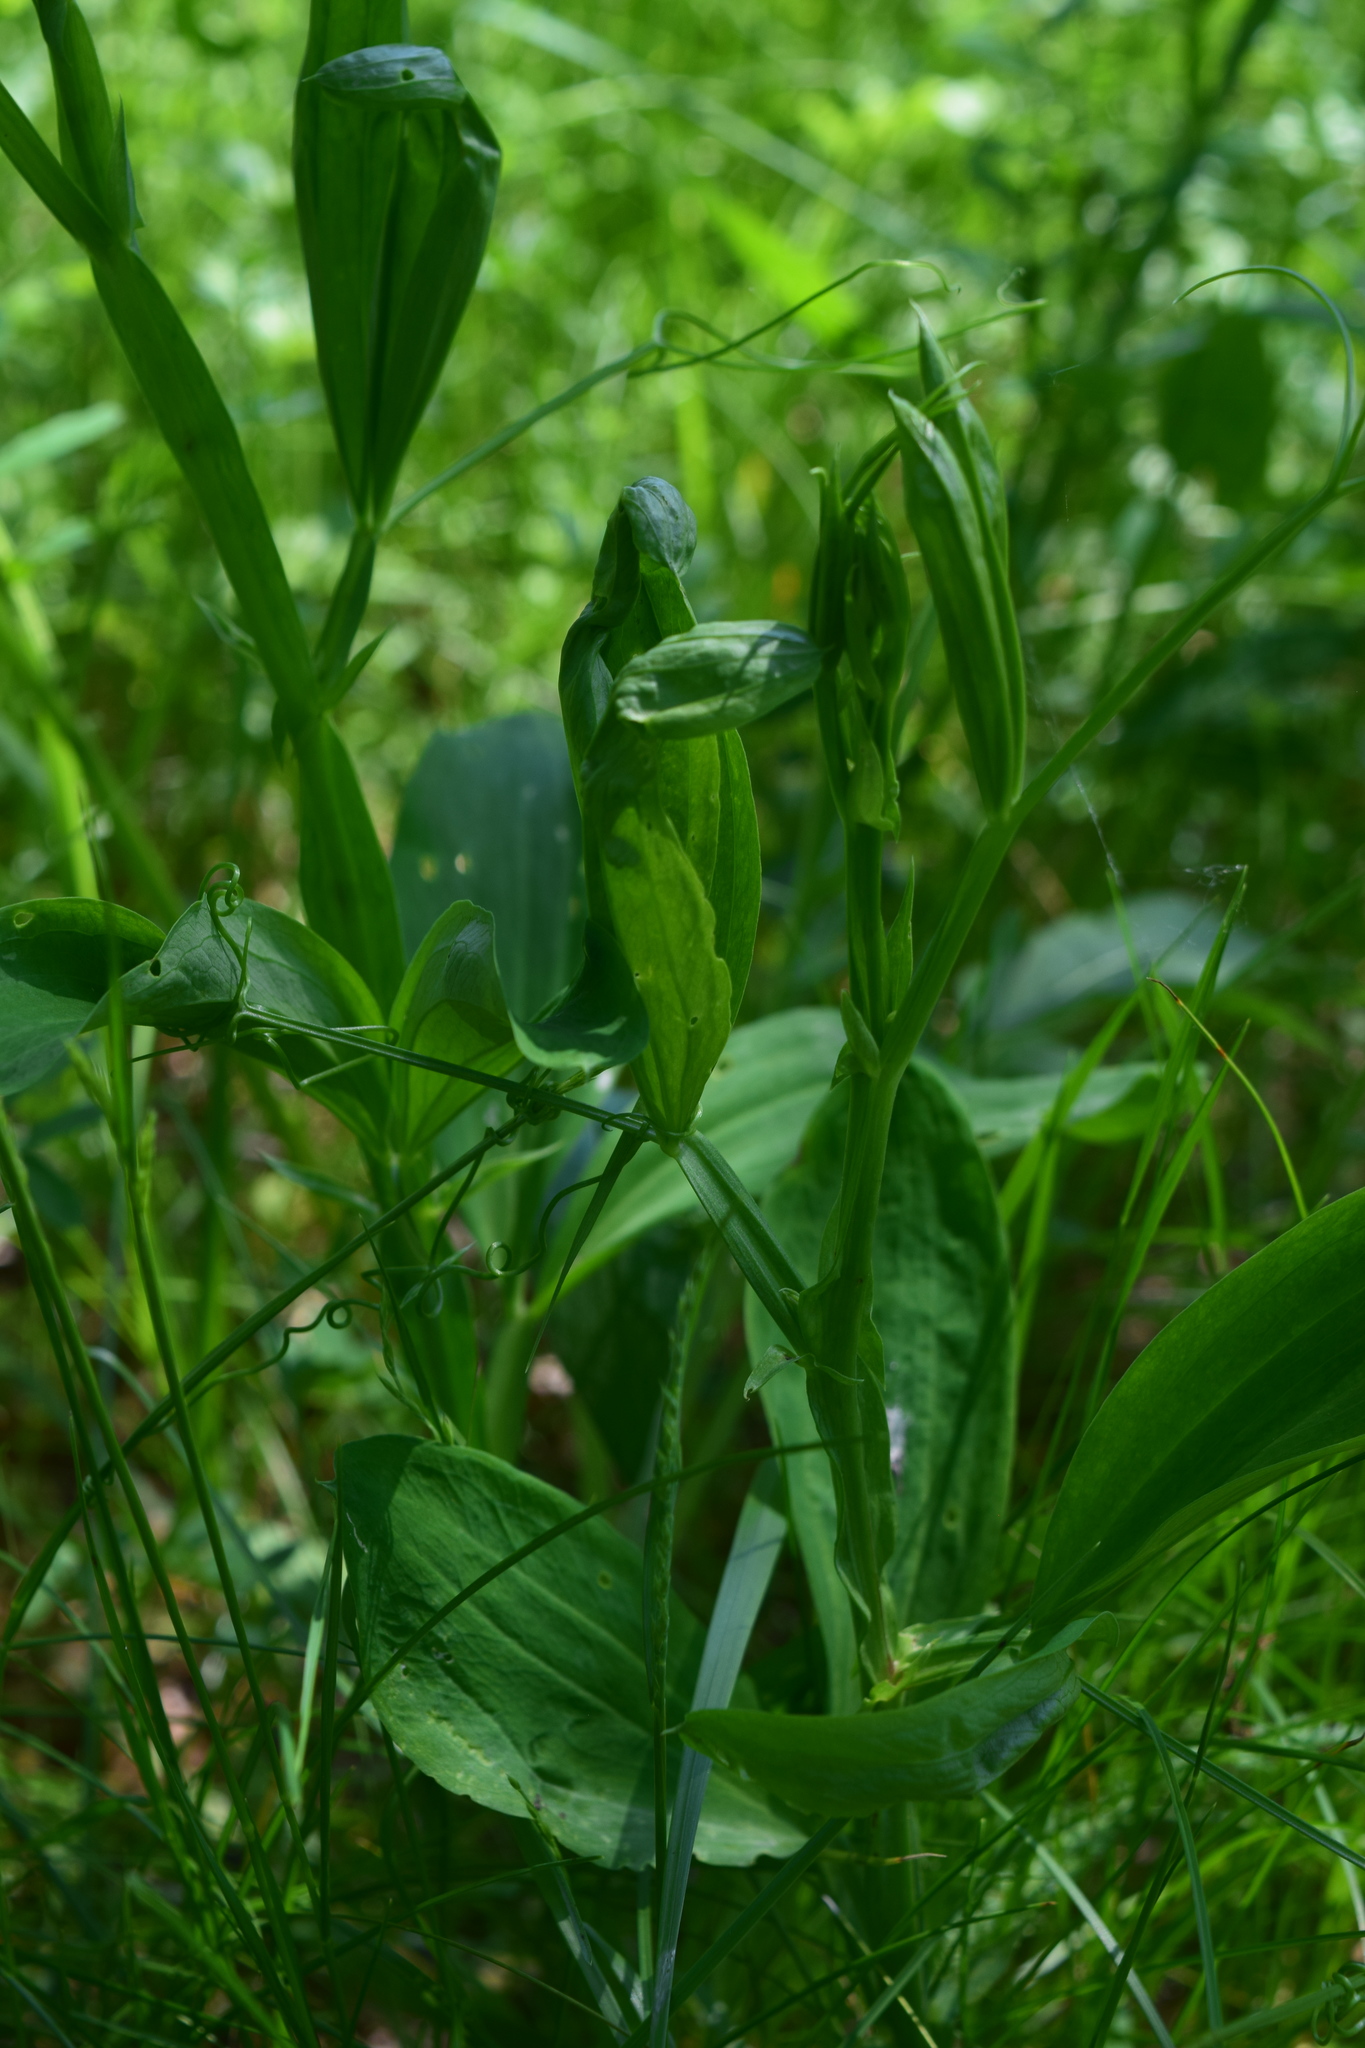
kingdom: Plantae
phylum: Tracheophyta
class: Magnoliopsida
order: Fabales
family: Fabaceae
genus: Lathyrus
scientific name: Lathyrus sylvestris
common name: Flat pea
